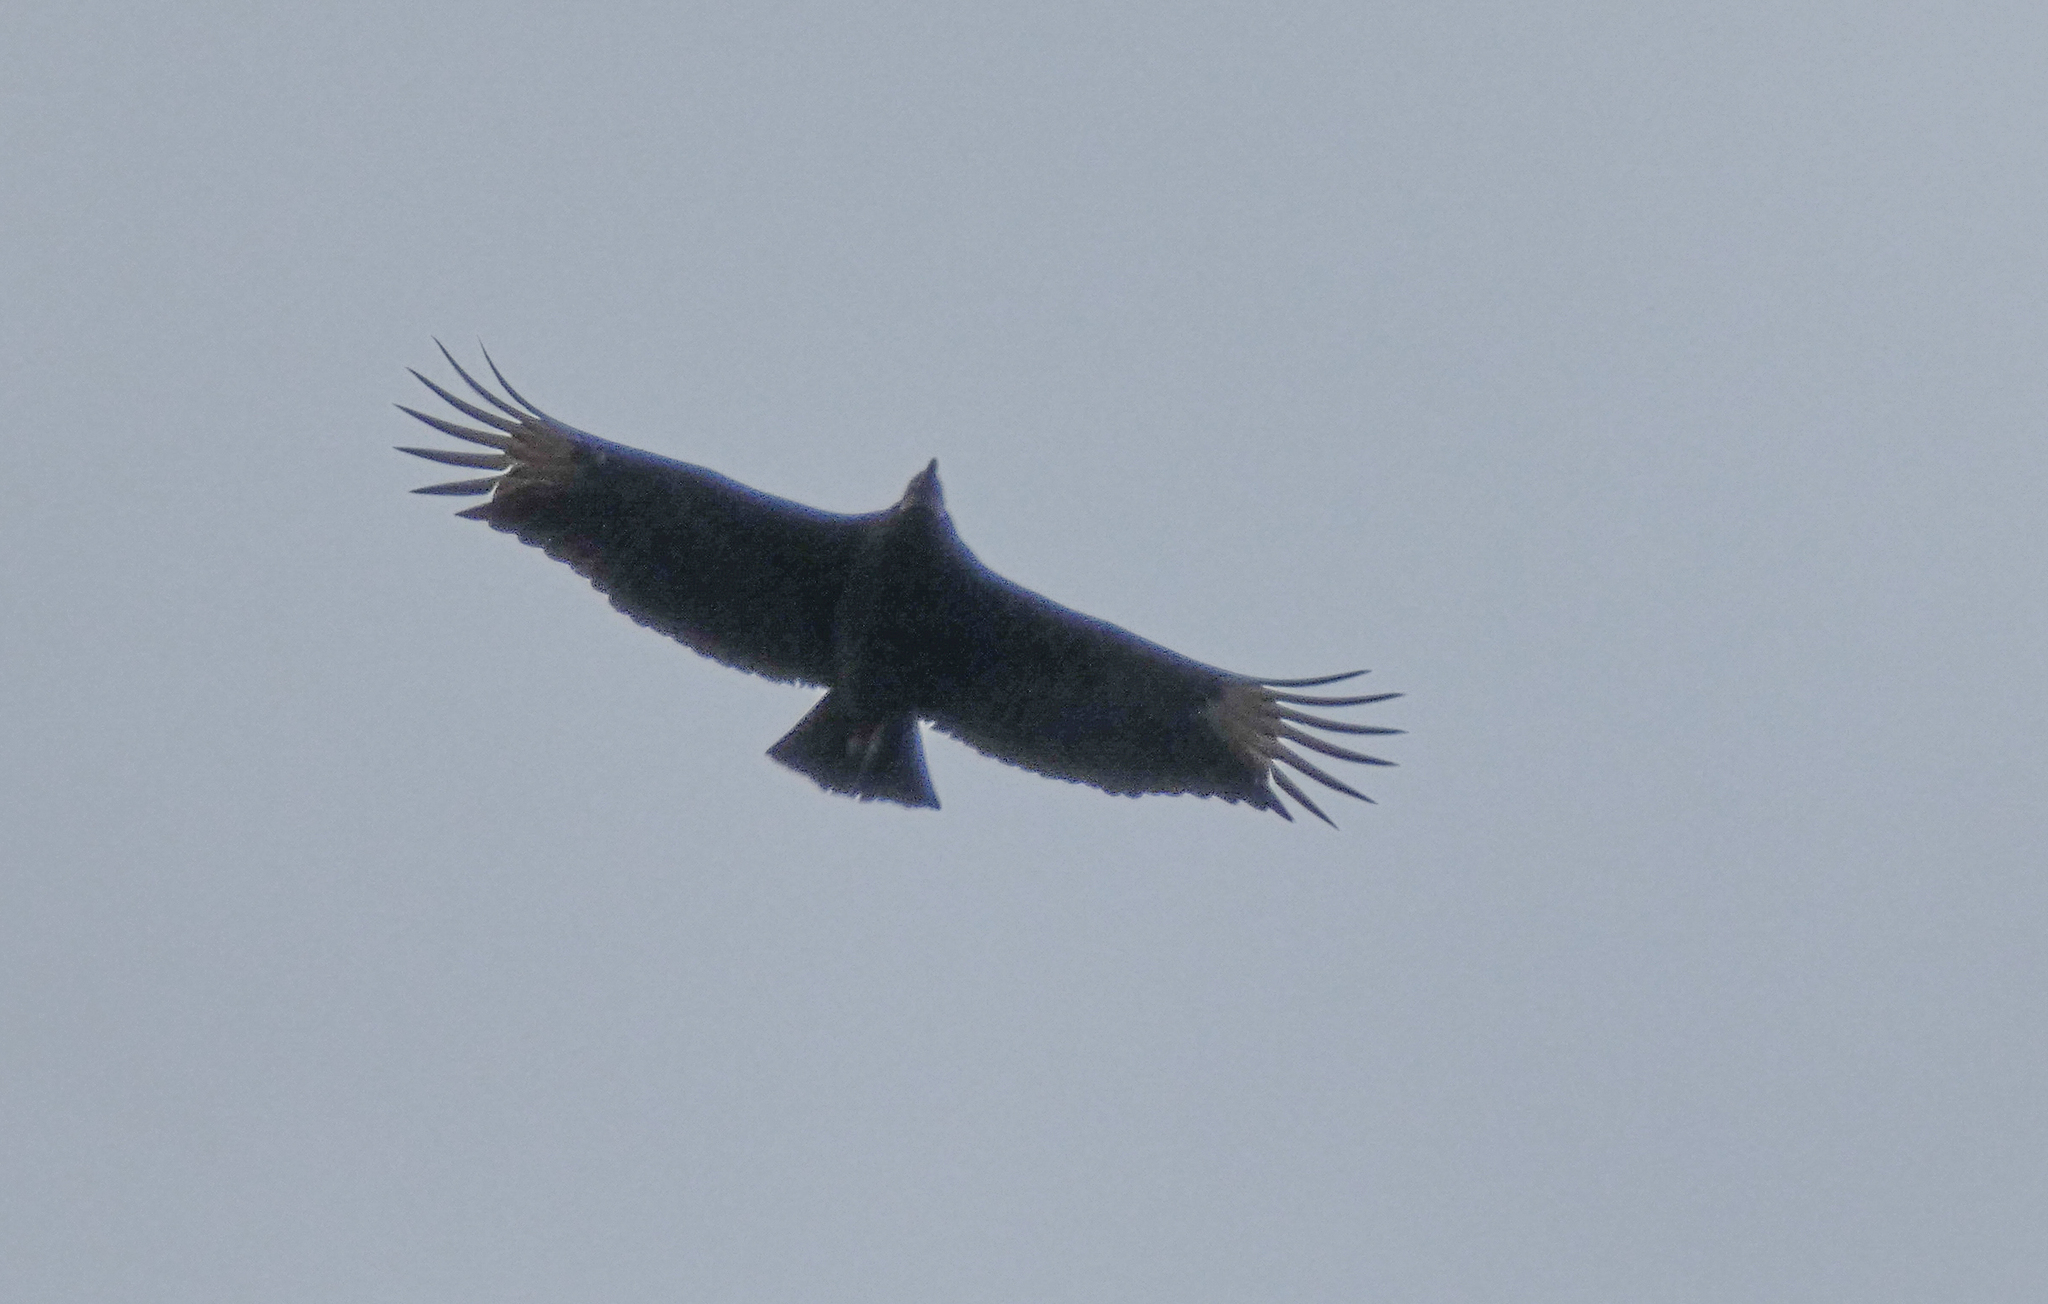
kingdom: Animalia
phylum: Chordata
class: Aves
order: Accipitriformes
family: Cathartidae
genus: Coragyps
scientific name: Coragyps atratus
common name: Black vulture
